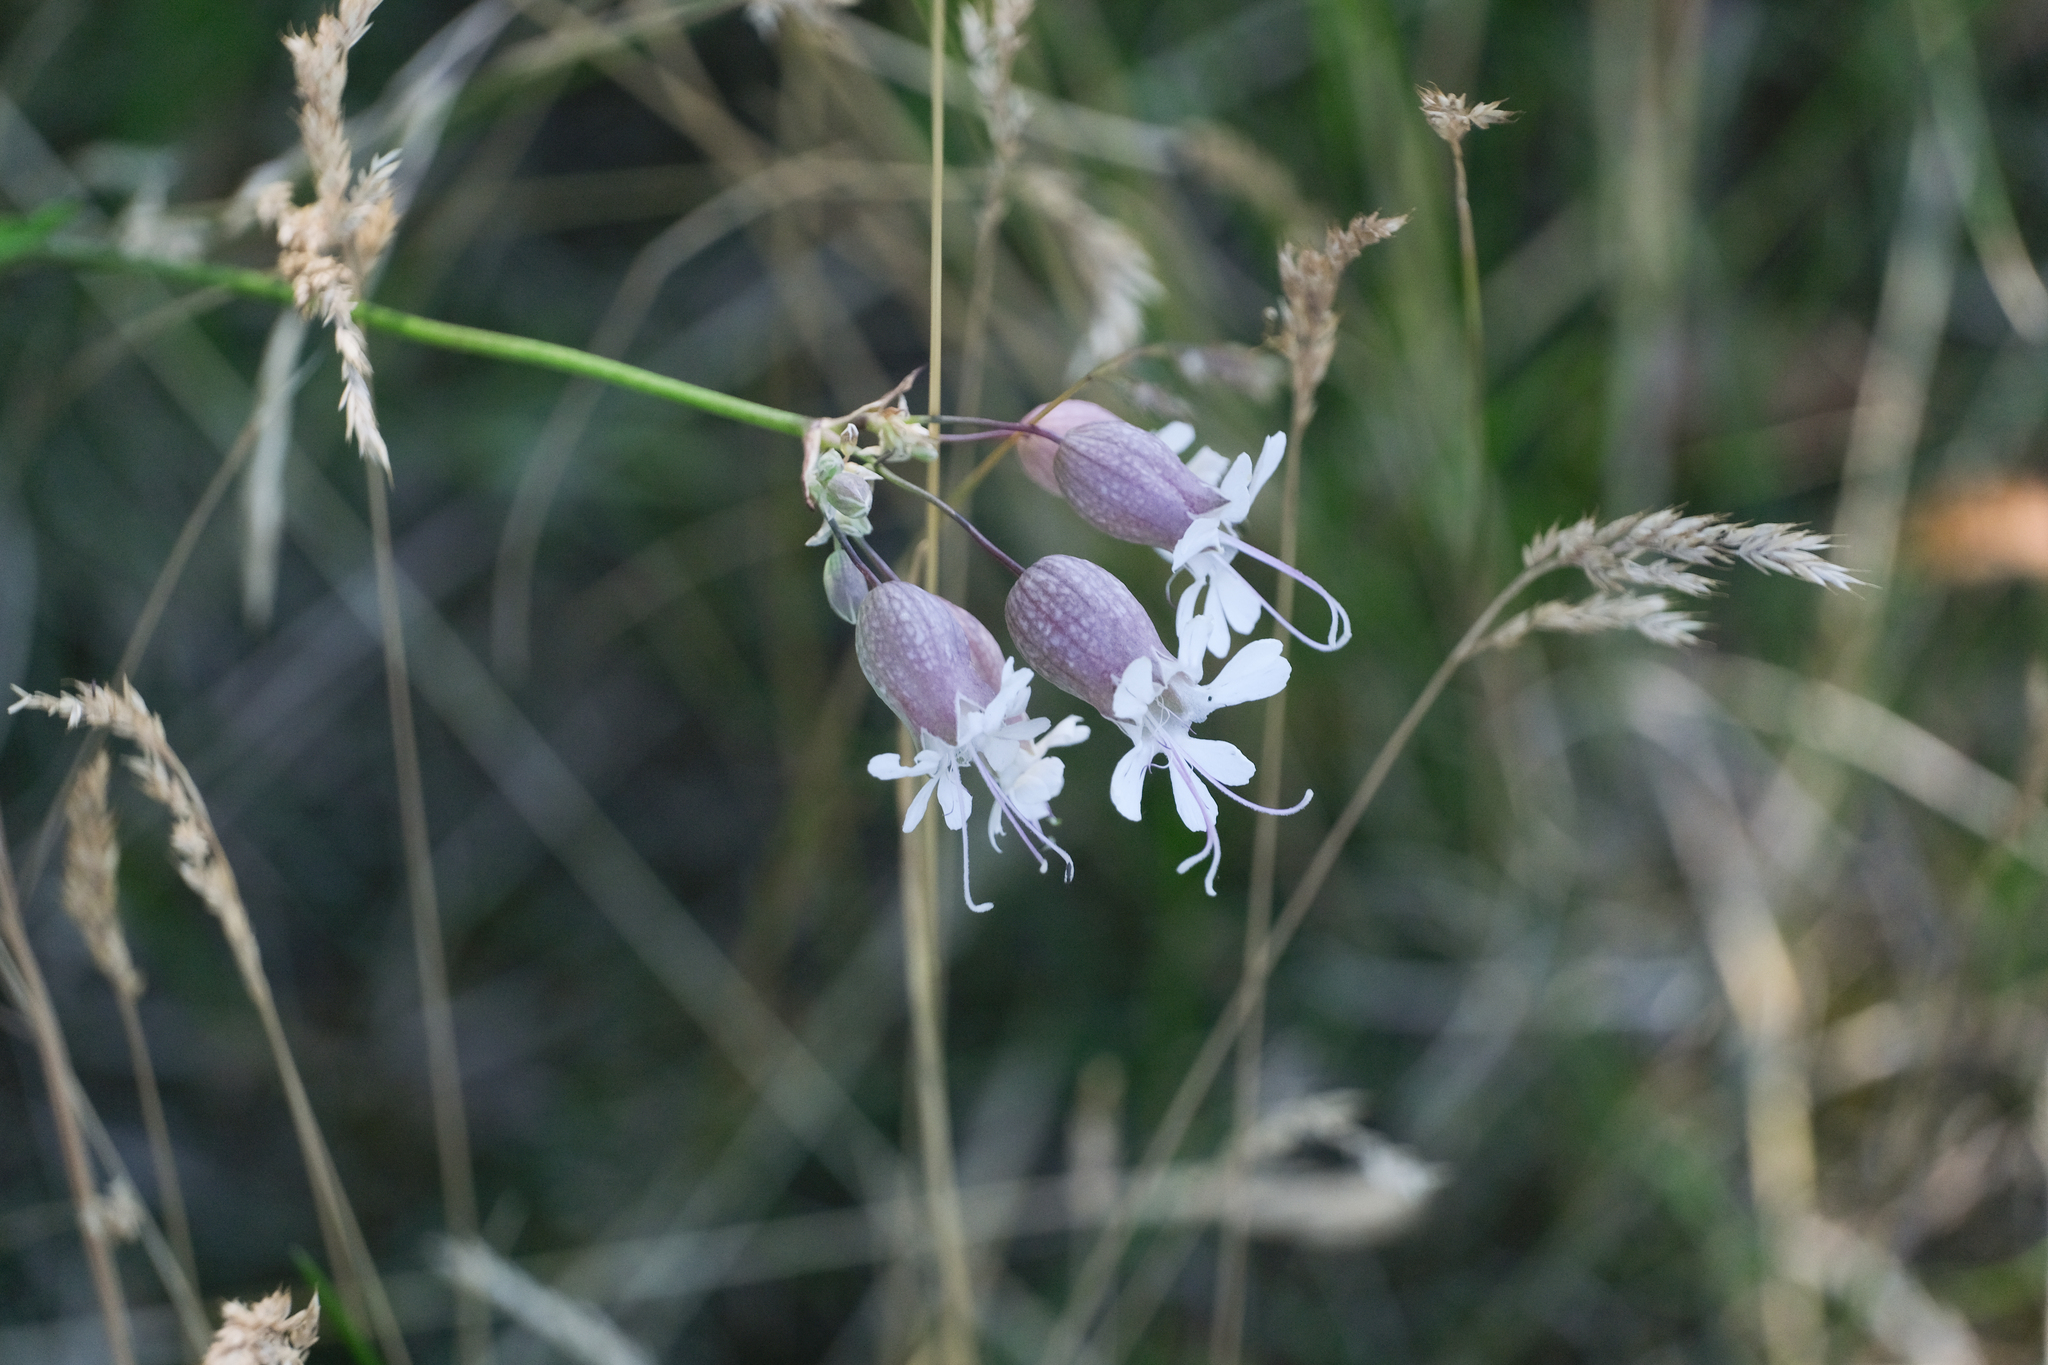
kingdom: Plantae
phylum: Tracheophyta
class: Magnoliopsida
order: Caryophyllales
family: Caryophyllaceae
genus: Silene
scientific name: Silene vulgaris
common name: Bladder campion
